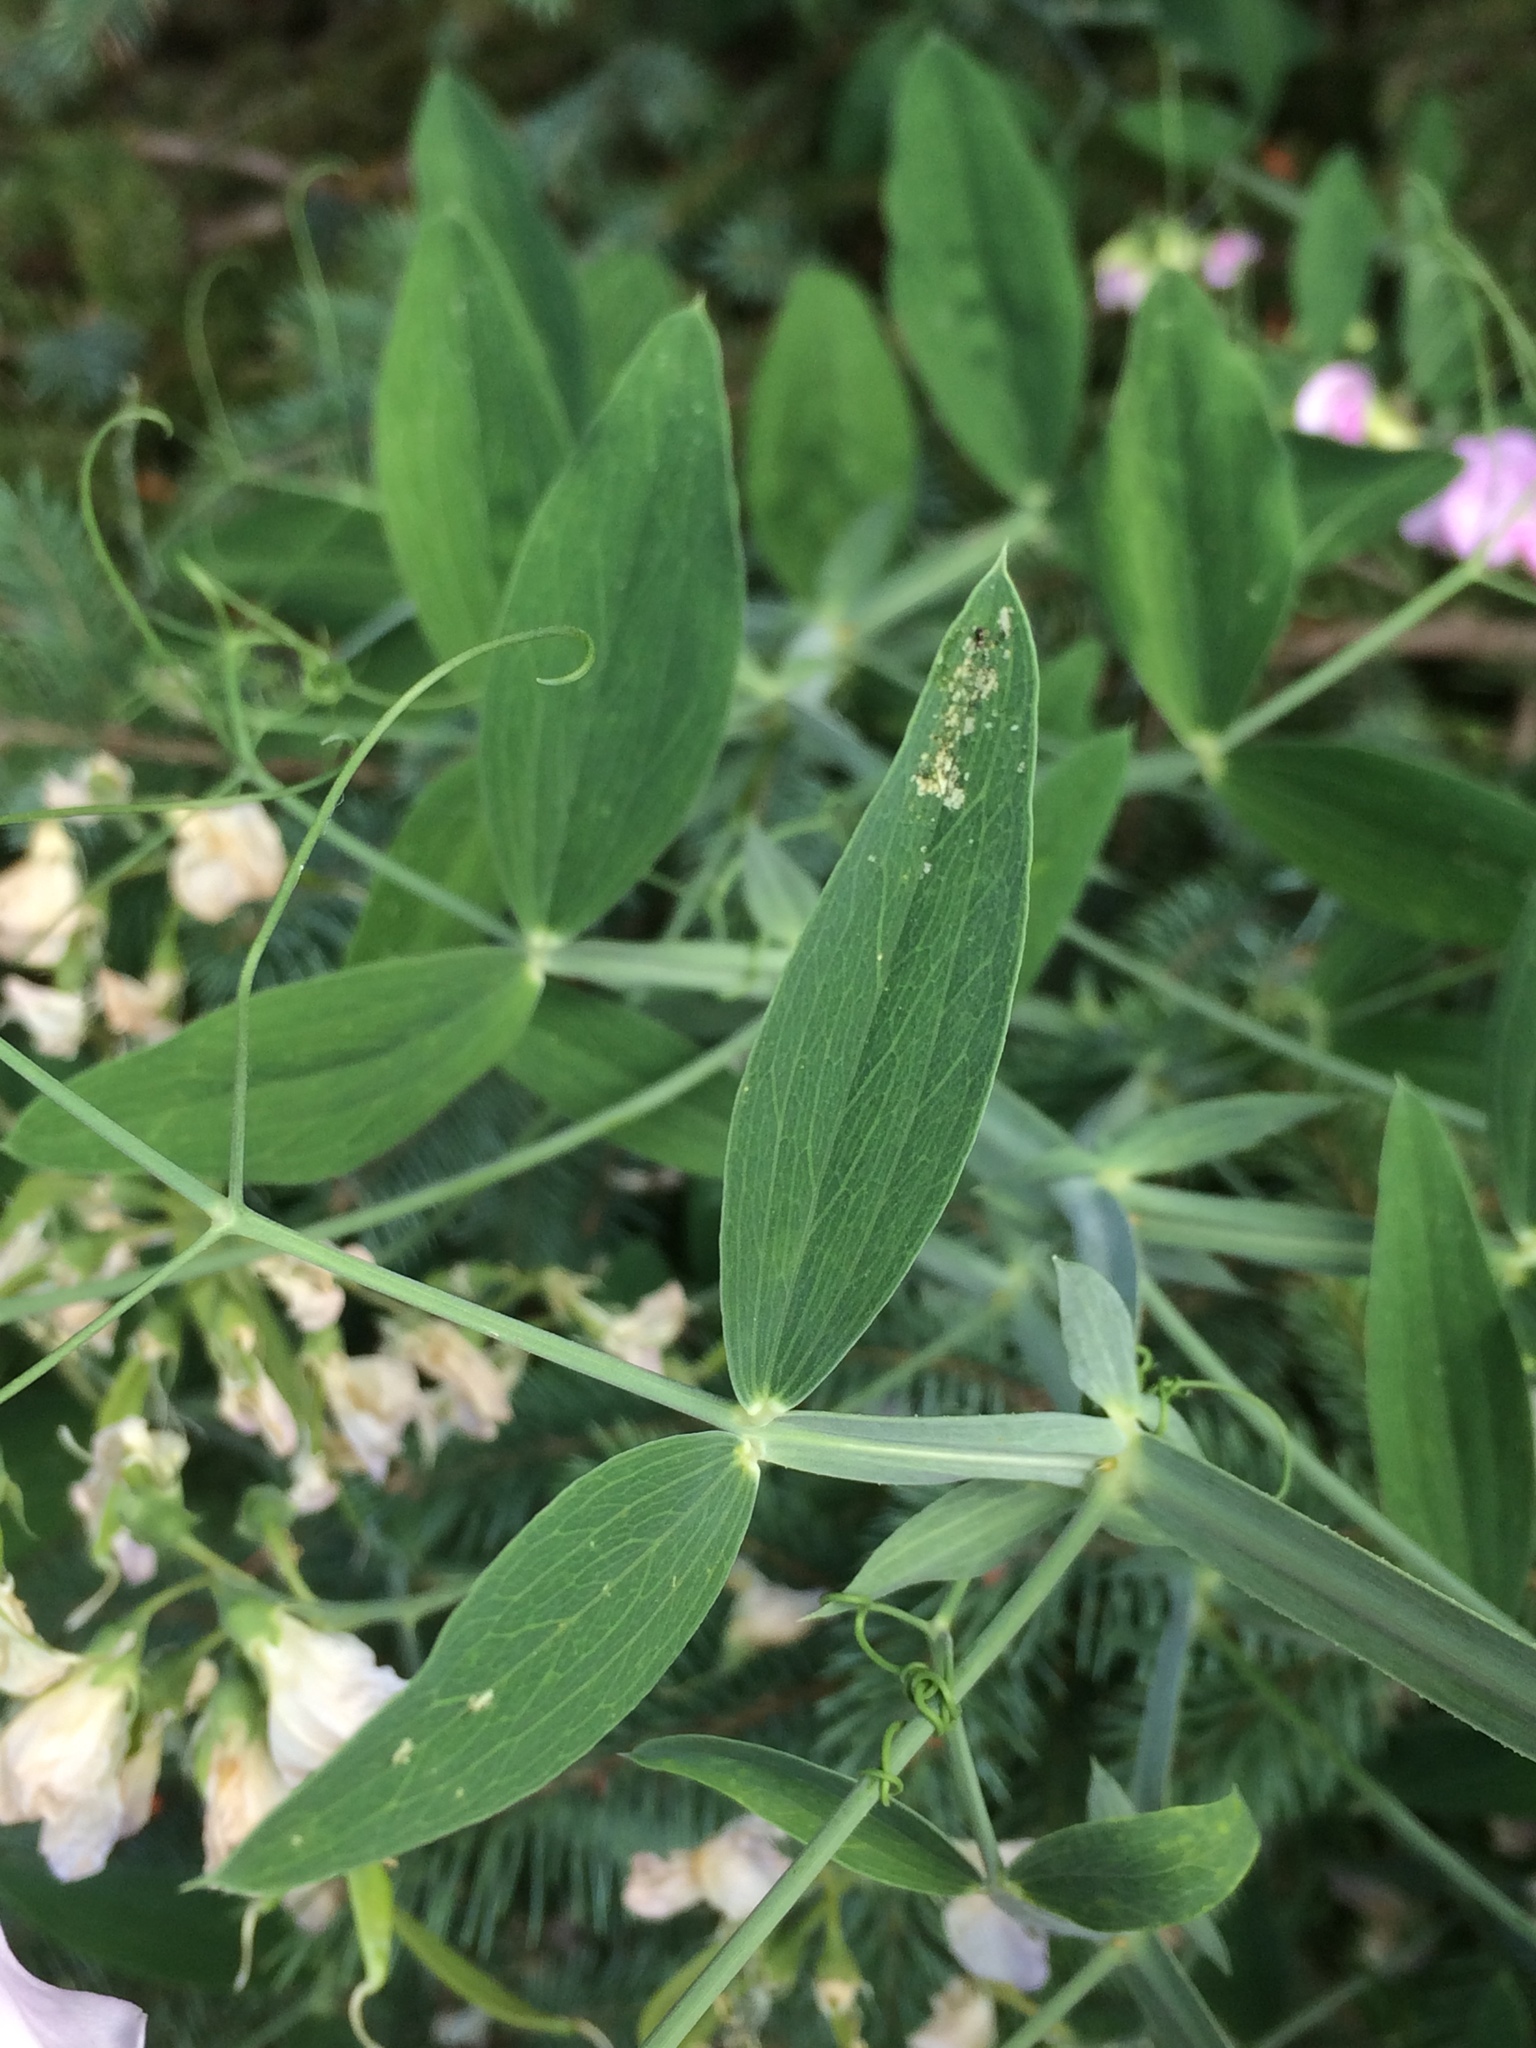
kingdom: Plantae
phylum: Tracheophyta
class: Magnoliopsida
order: Fabales
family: Fabaceae
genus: Lathyrus
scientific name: Lathyrus latifolius
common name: Perennial pea
